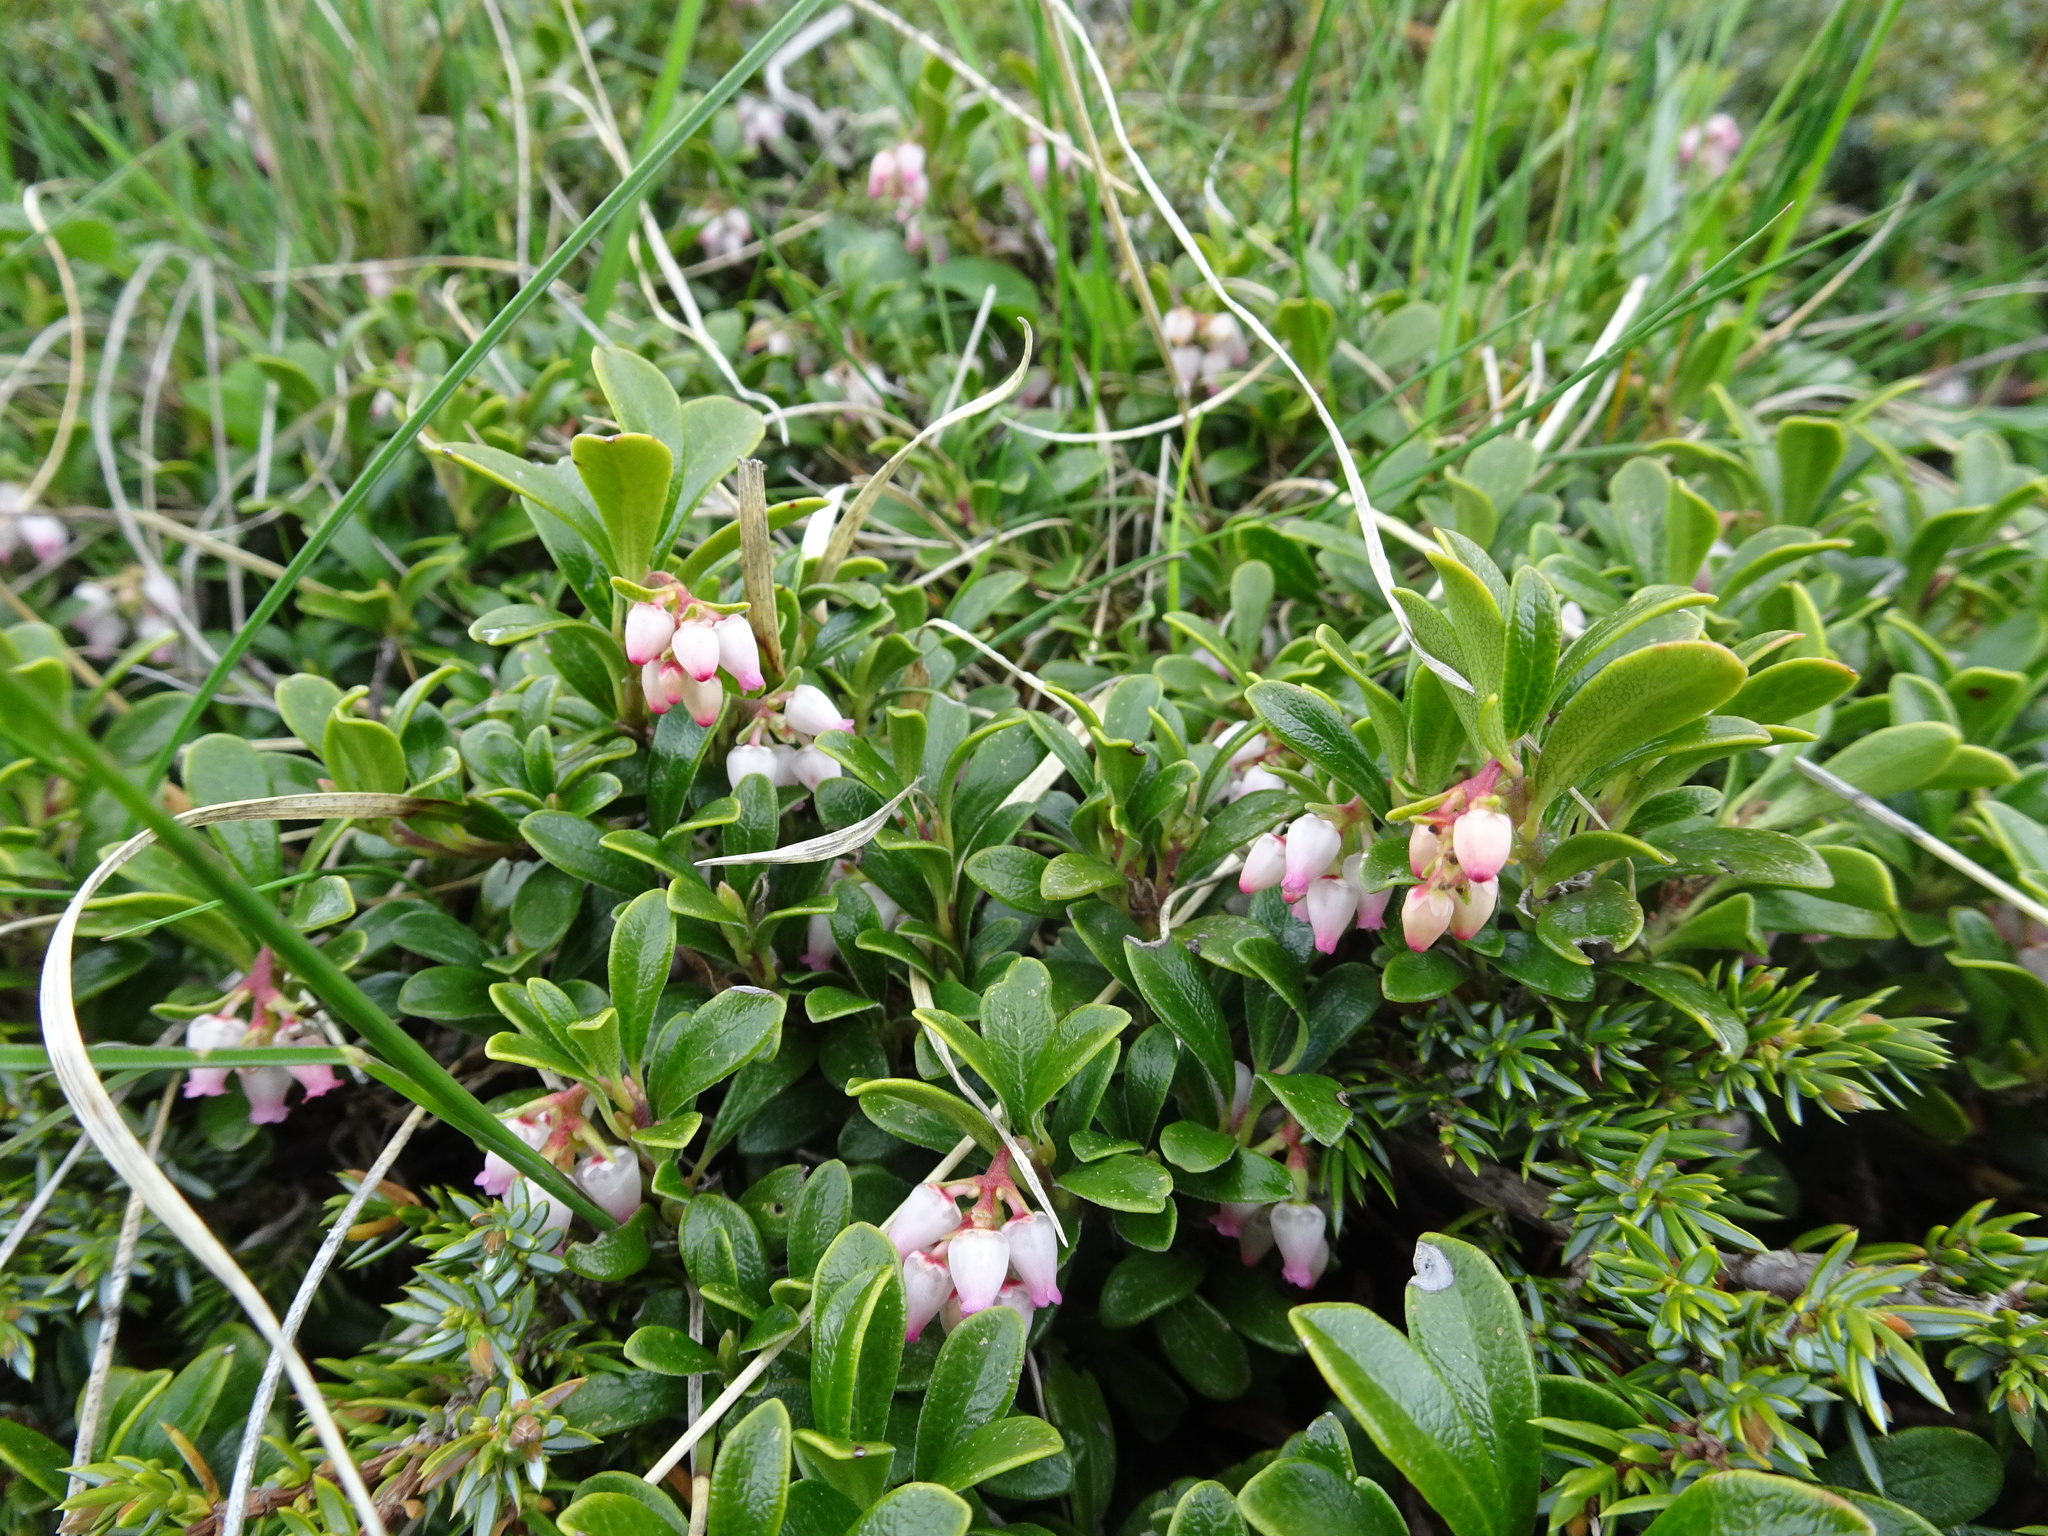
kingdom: Plantae
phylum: Tracheophyta
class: Magnoliopsida
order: Ericales
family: Ericaceae
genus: Arctostaphylos
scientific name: Arctostaphylos uva-ursi
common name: Bearberry
